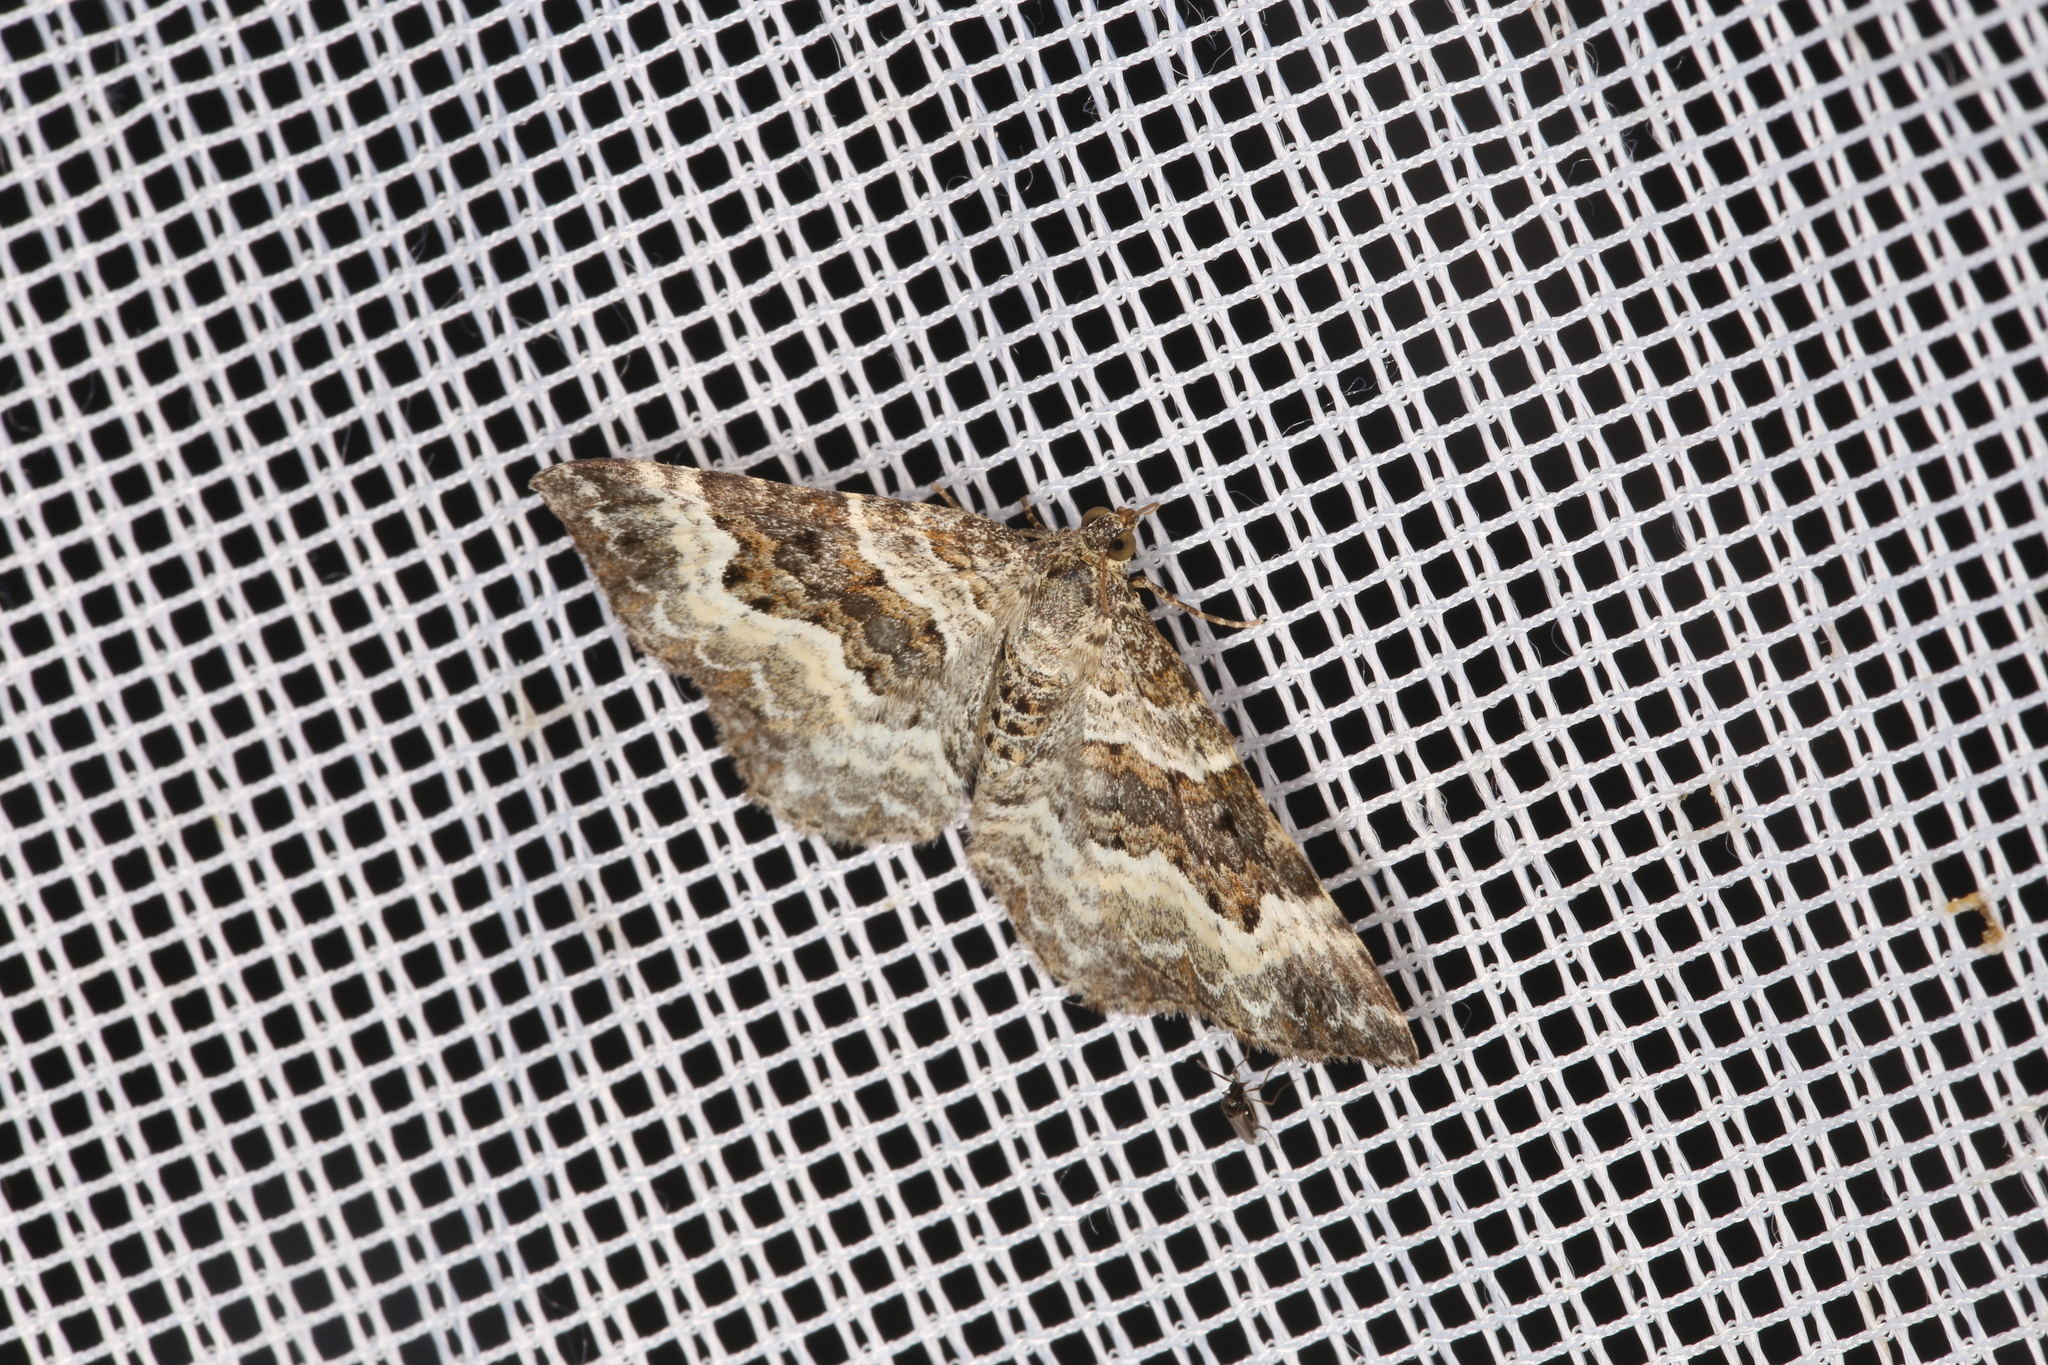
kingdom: Animalia
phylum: Arthropoda
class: Insecta
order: Lepidoptera
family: Geometridae
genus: Epirrhoe
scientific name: Epirrhoe alternata
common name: Common carpet
